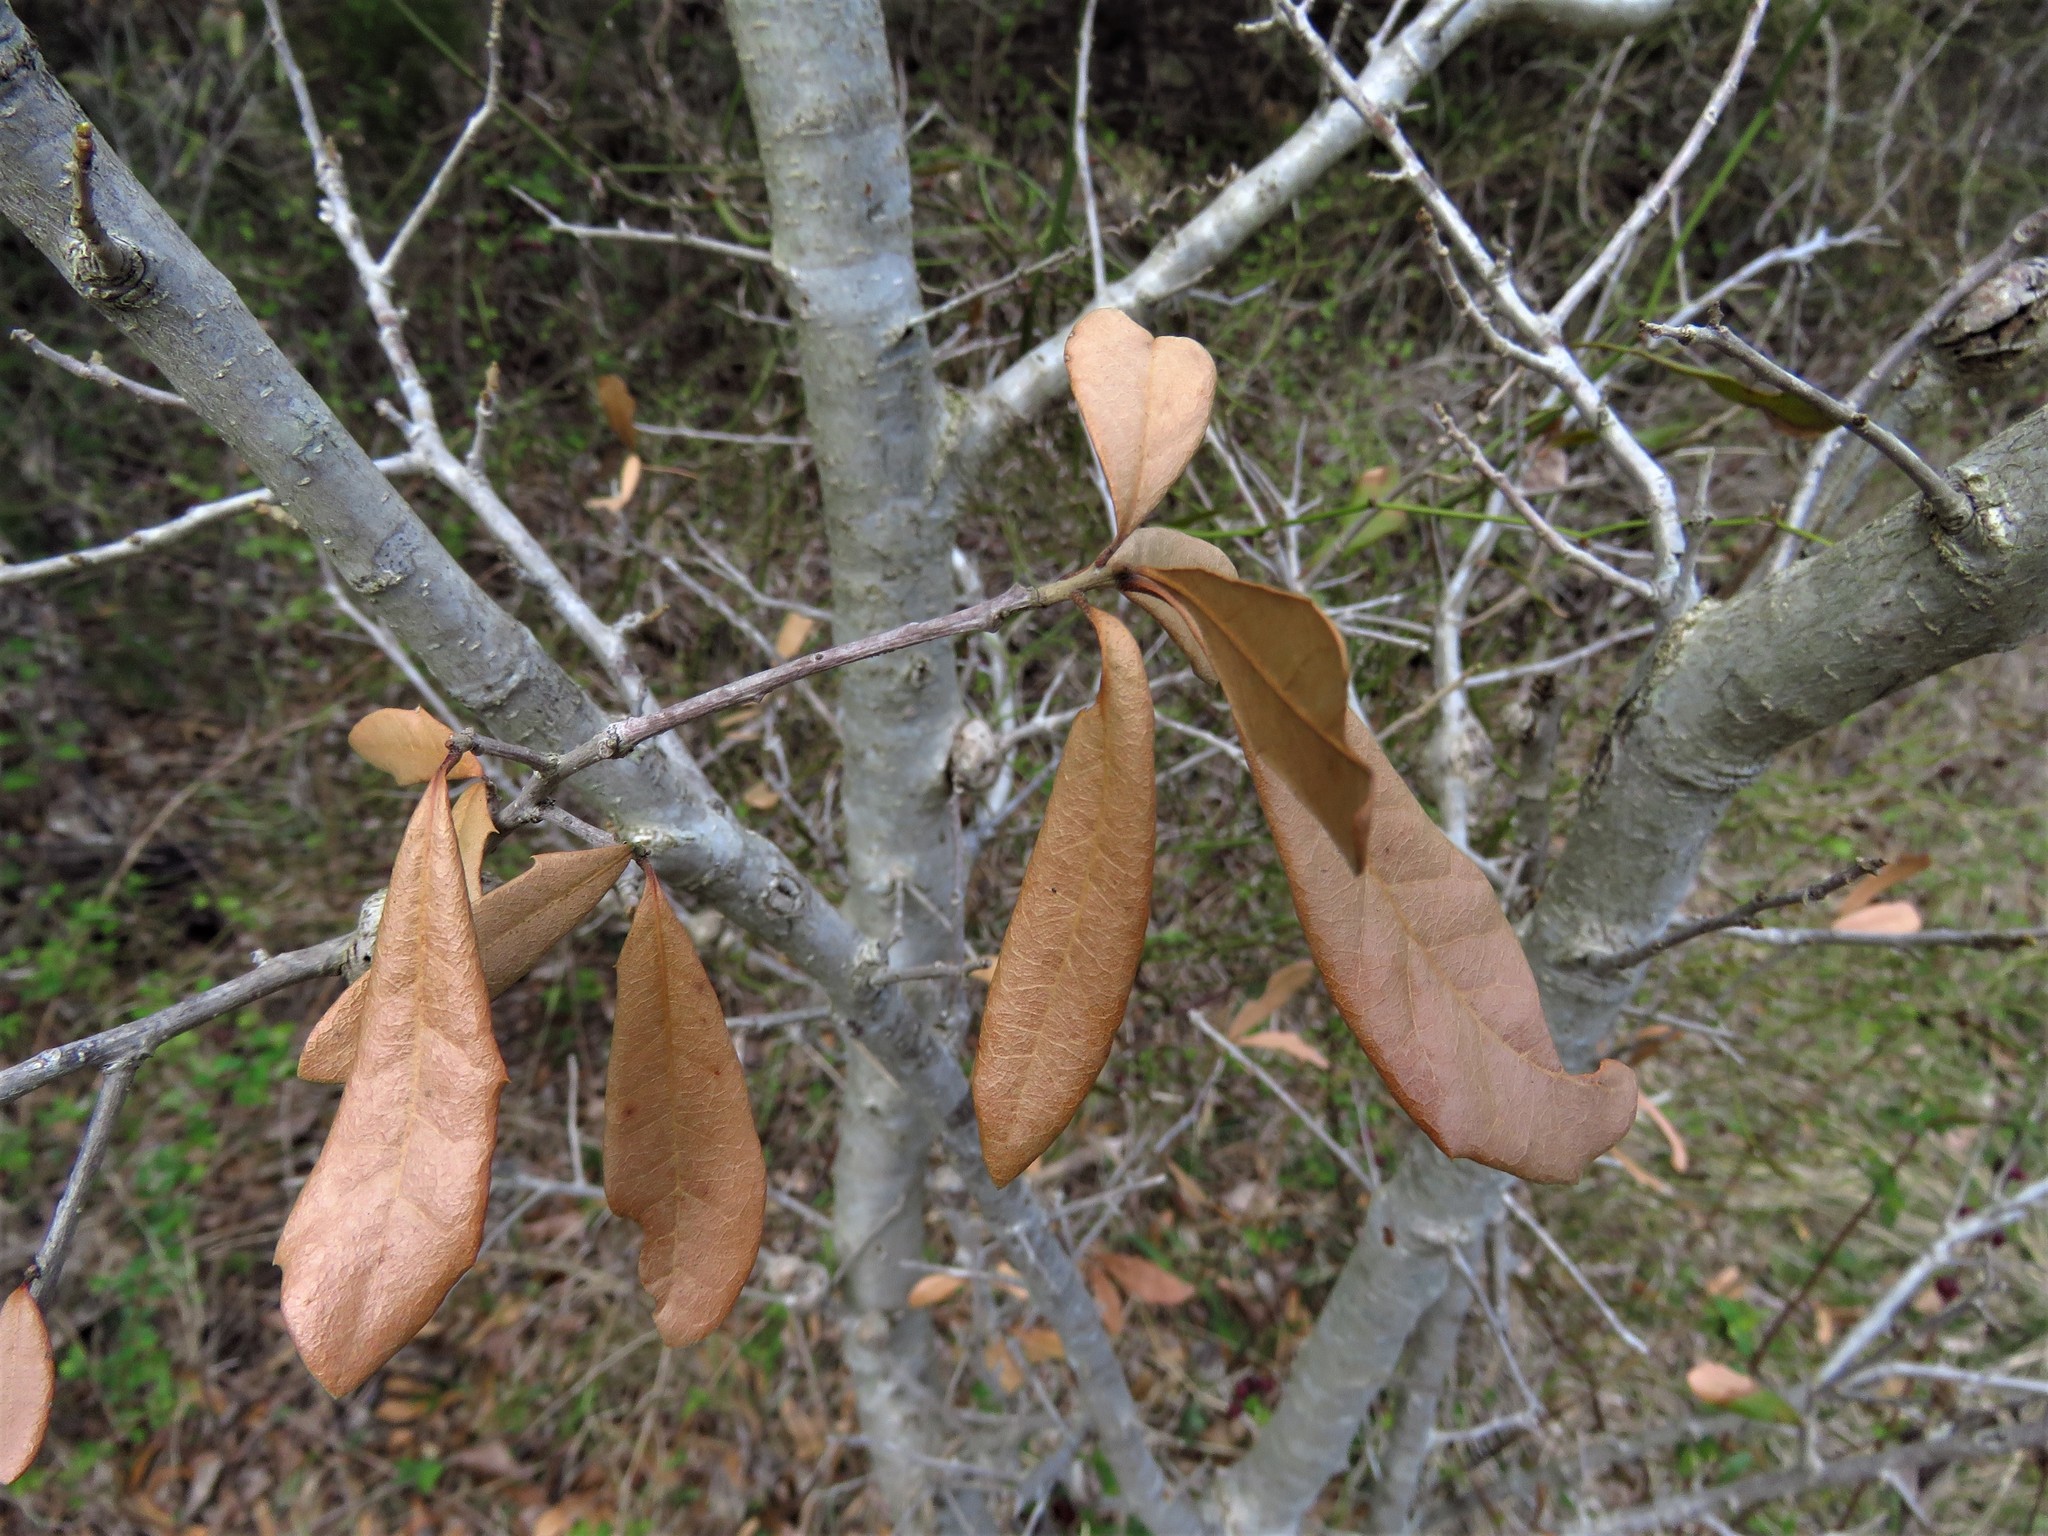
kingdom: Plantae
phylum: Tracheophyta
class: Magnoliopsida
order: Fagales
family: Fagaceae
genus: Quercus
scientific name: Quercus fusiformis
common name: Texas live oak
